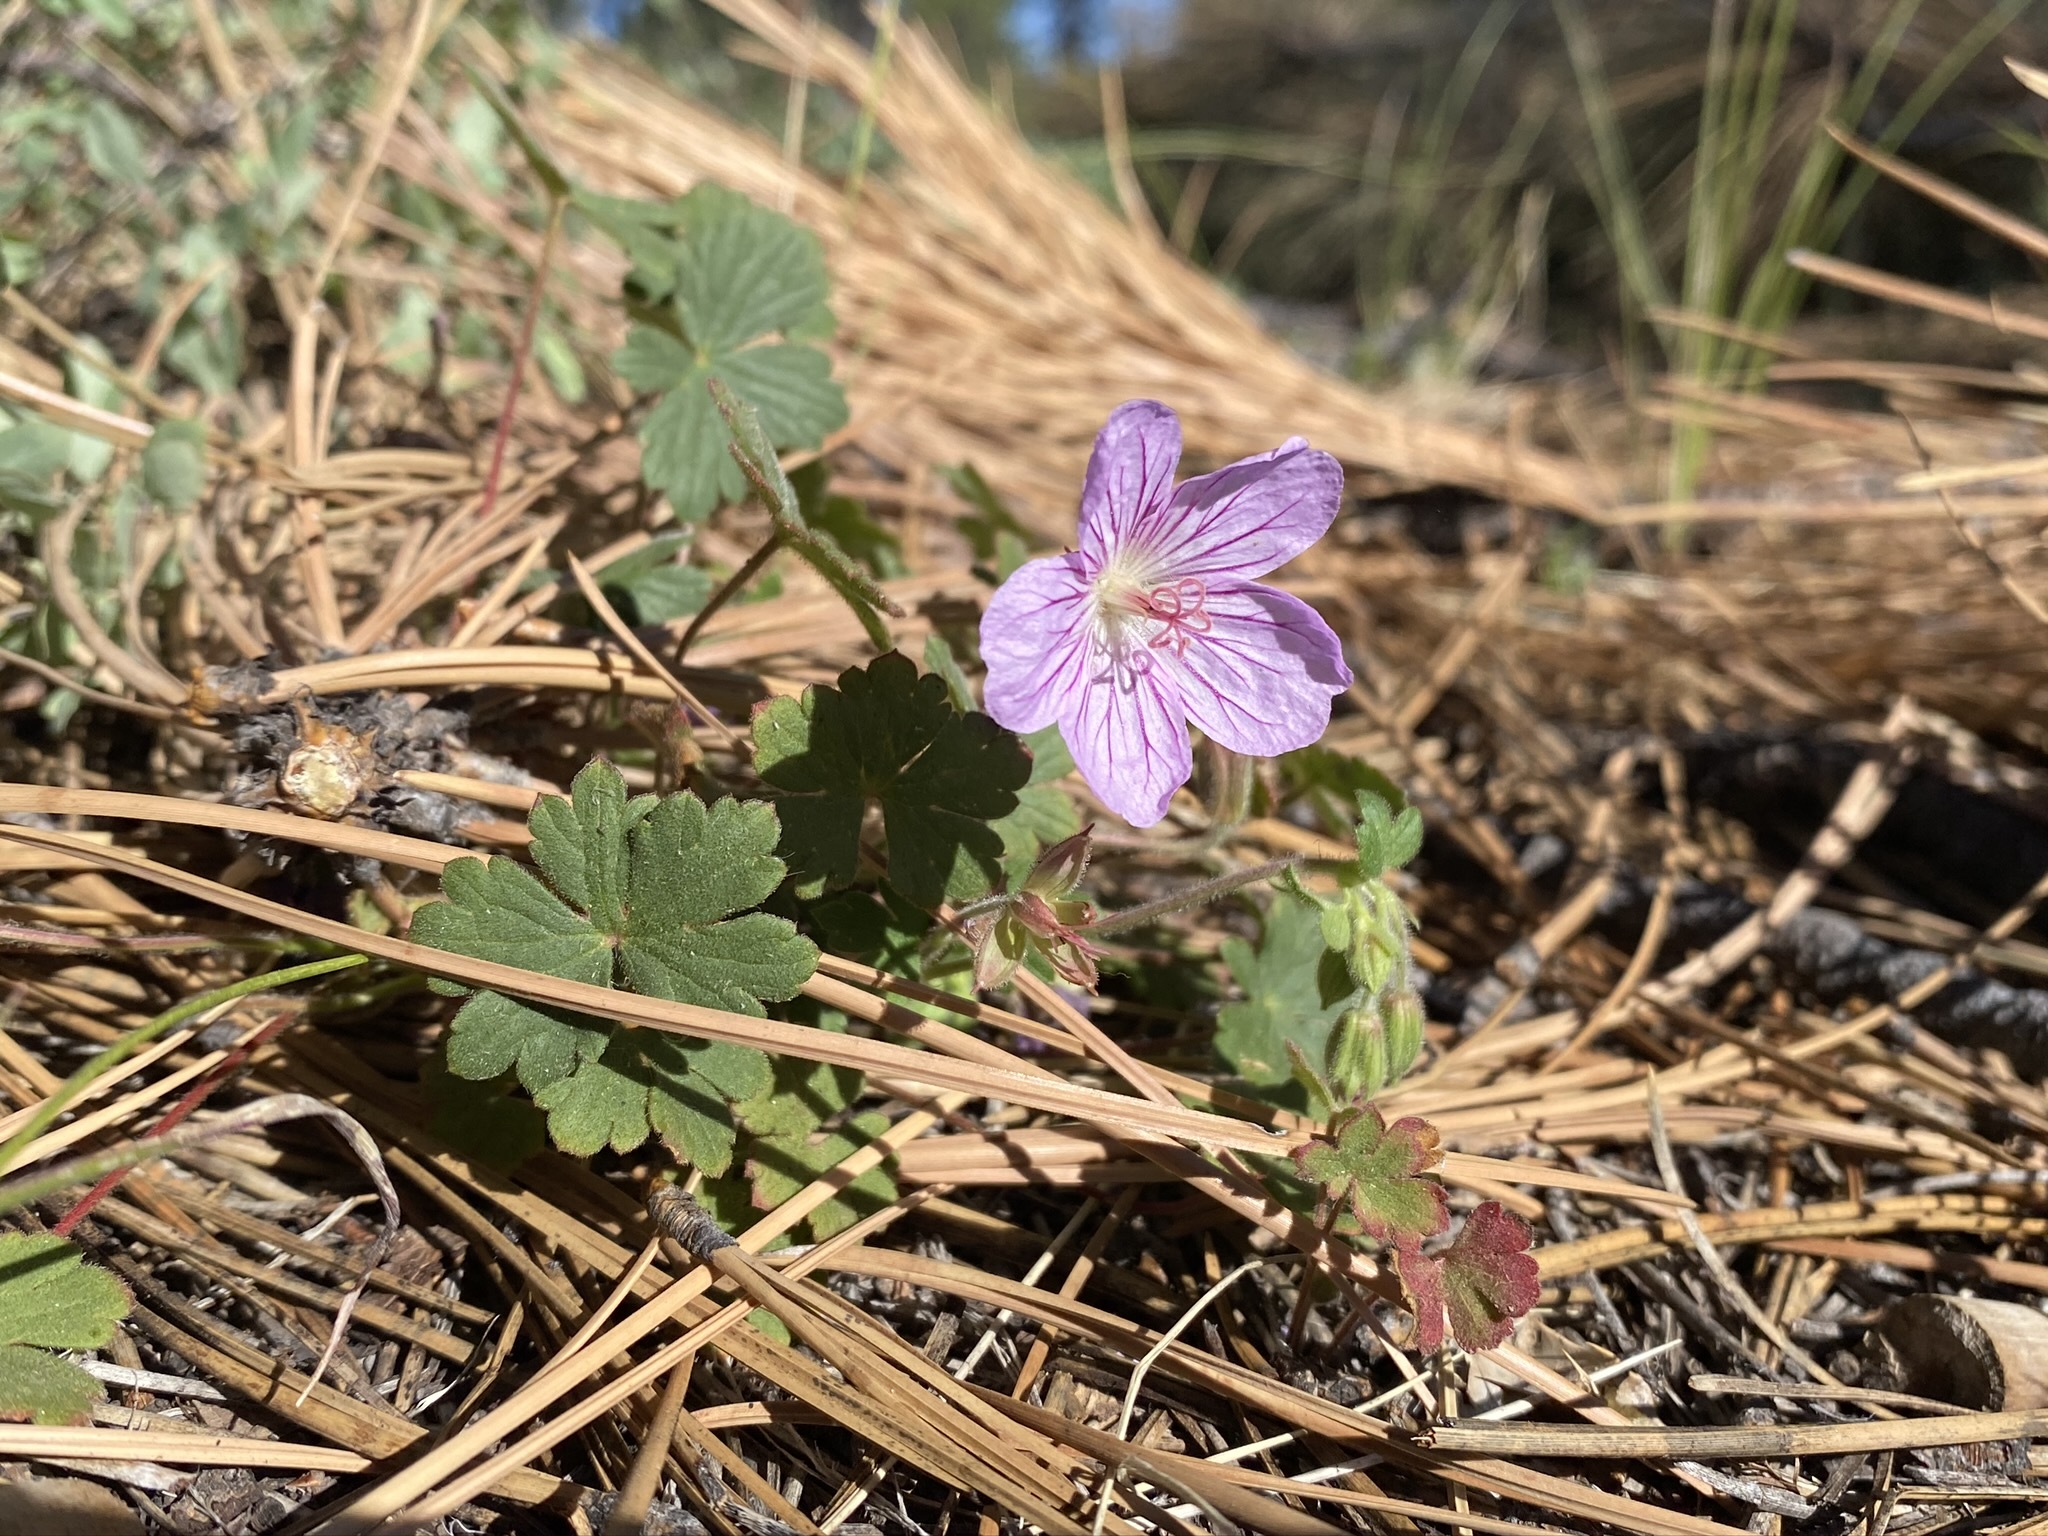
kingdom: Plantae
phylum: Tracheophyta
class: Magnoliopsida
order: Geraniales
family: Geraniaceae
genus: Geranium
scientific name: Geranium viscosissimum
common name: Purple geranium
